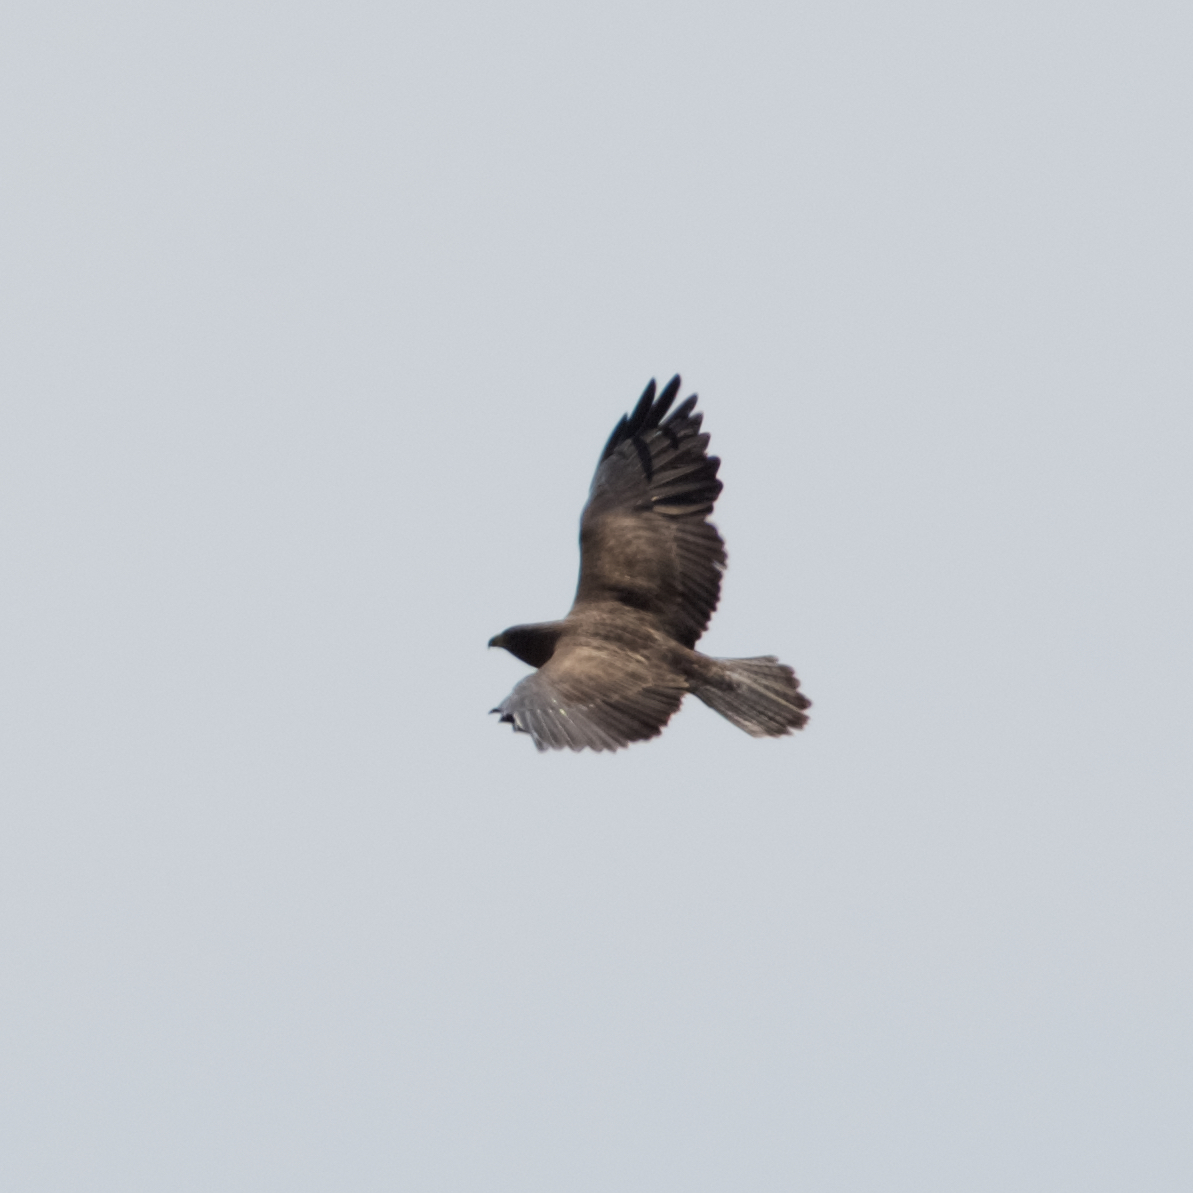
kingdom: Animalia
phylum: Chordata
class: Aves
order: Accipitriformes
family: Accipitridae
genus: Buteo
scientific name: Buteo swainsoni
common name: Swainson's hawk
